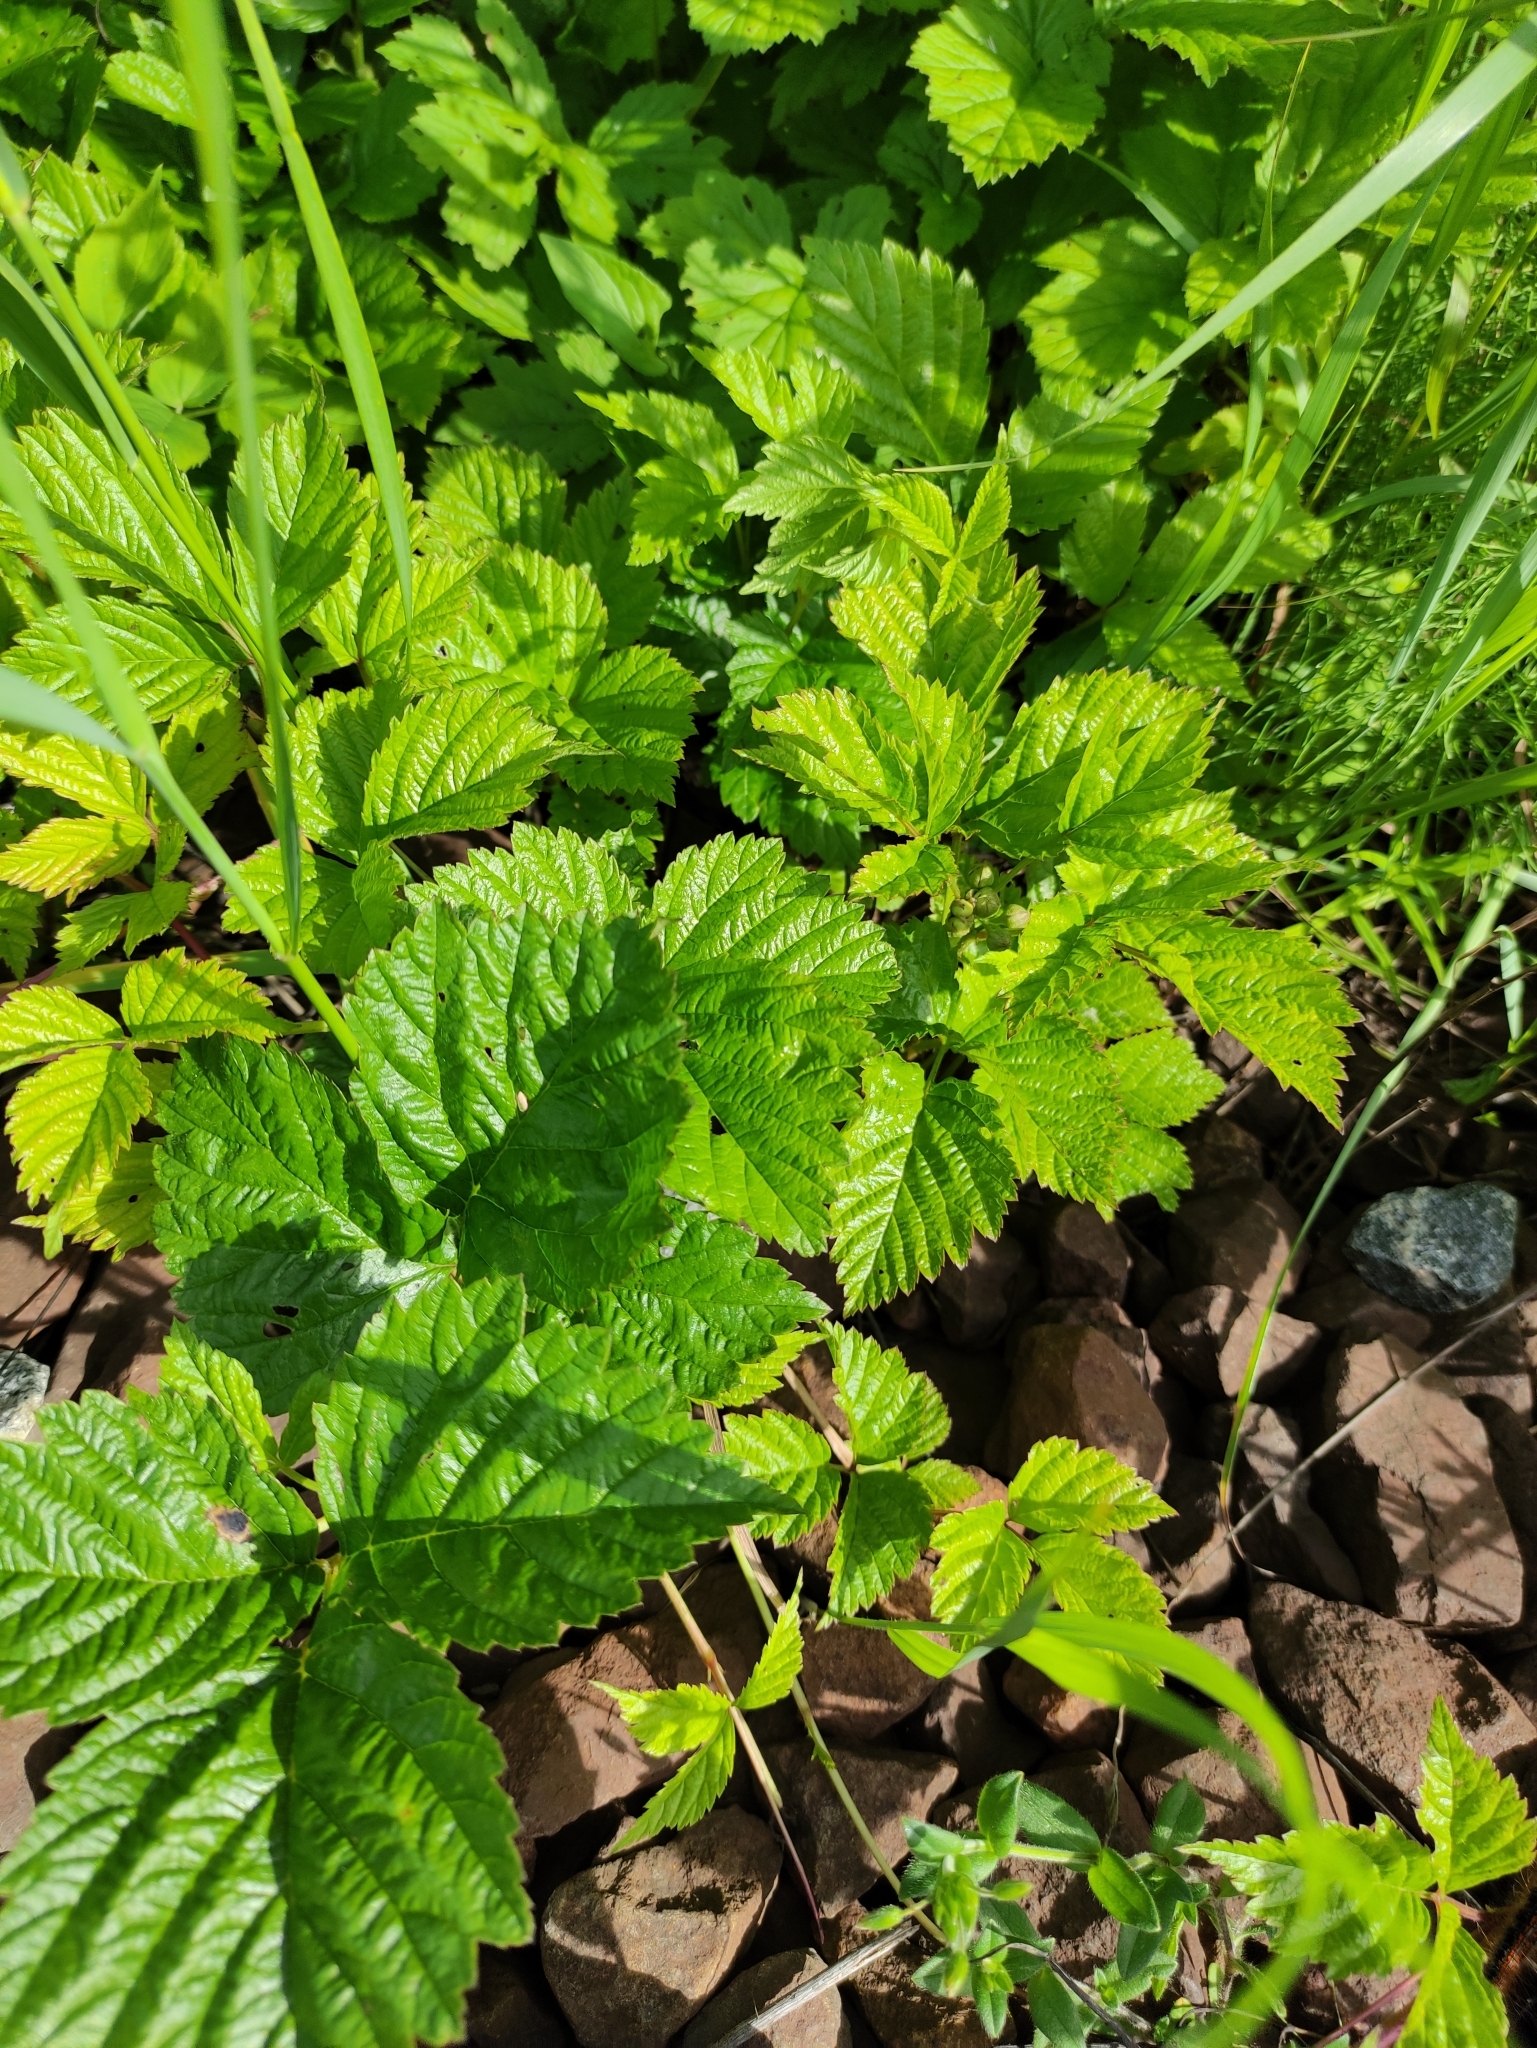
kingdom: Plantae
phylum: Tracheophyta
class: Magnoliopsida
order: Rosales
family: Rosaceae
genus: Rubus
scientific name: Rubus saxatilis
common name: Stone bramble
